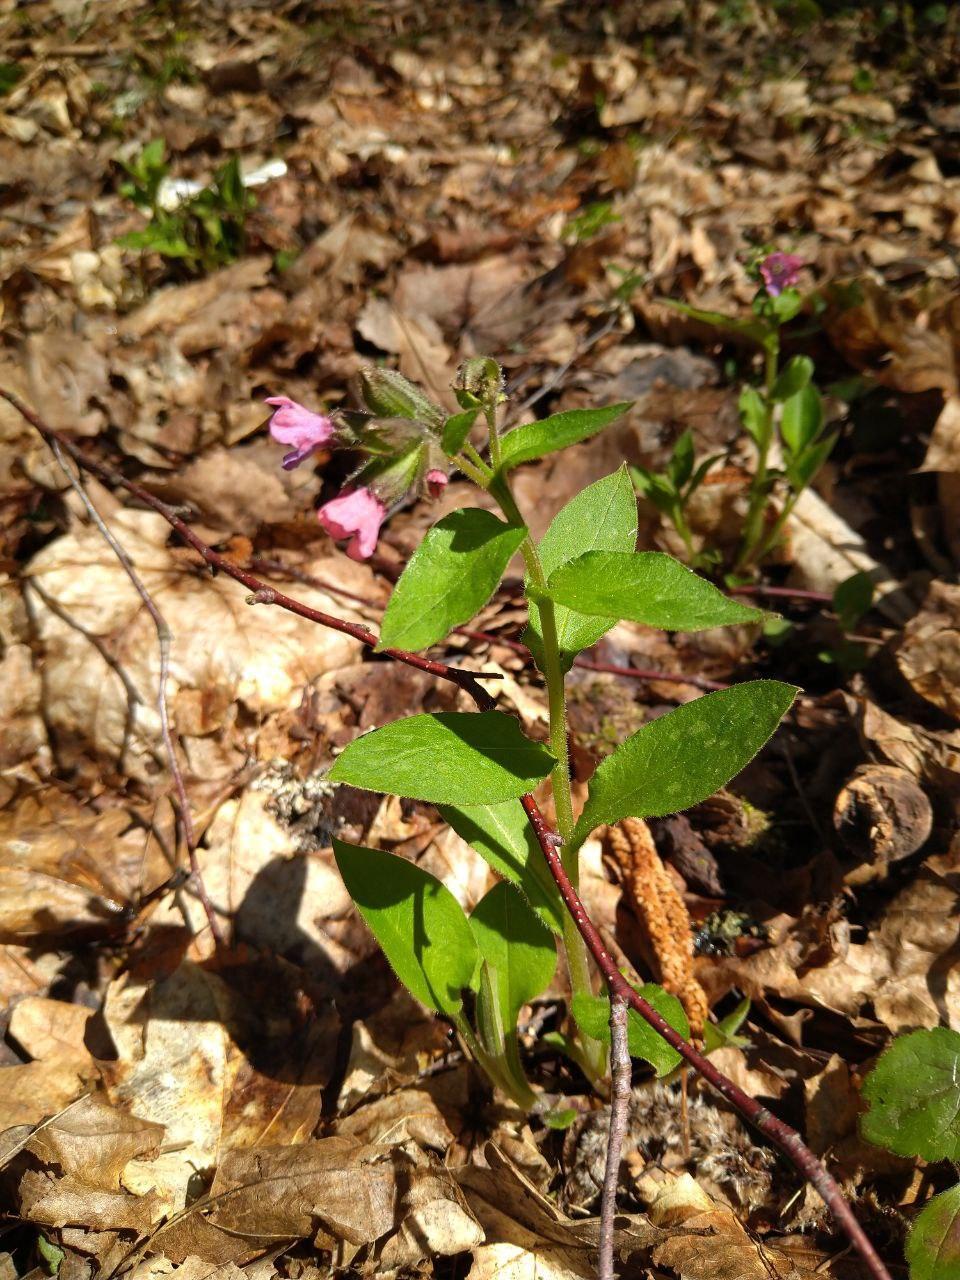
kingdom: Plantae
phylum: Tracheophyta
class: Magnoliopsida
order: Boraginales
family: Boraginaceae
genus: Pulmonaria
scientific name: Pulmonaria obscura
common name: Suffolk lungwort
